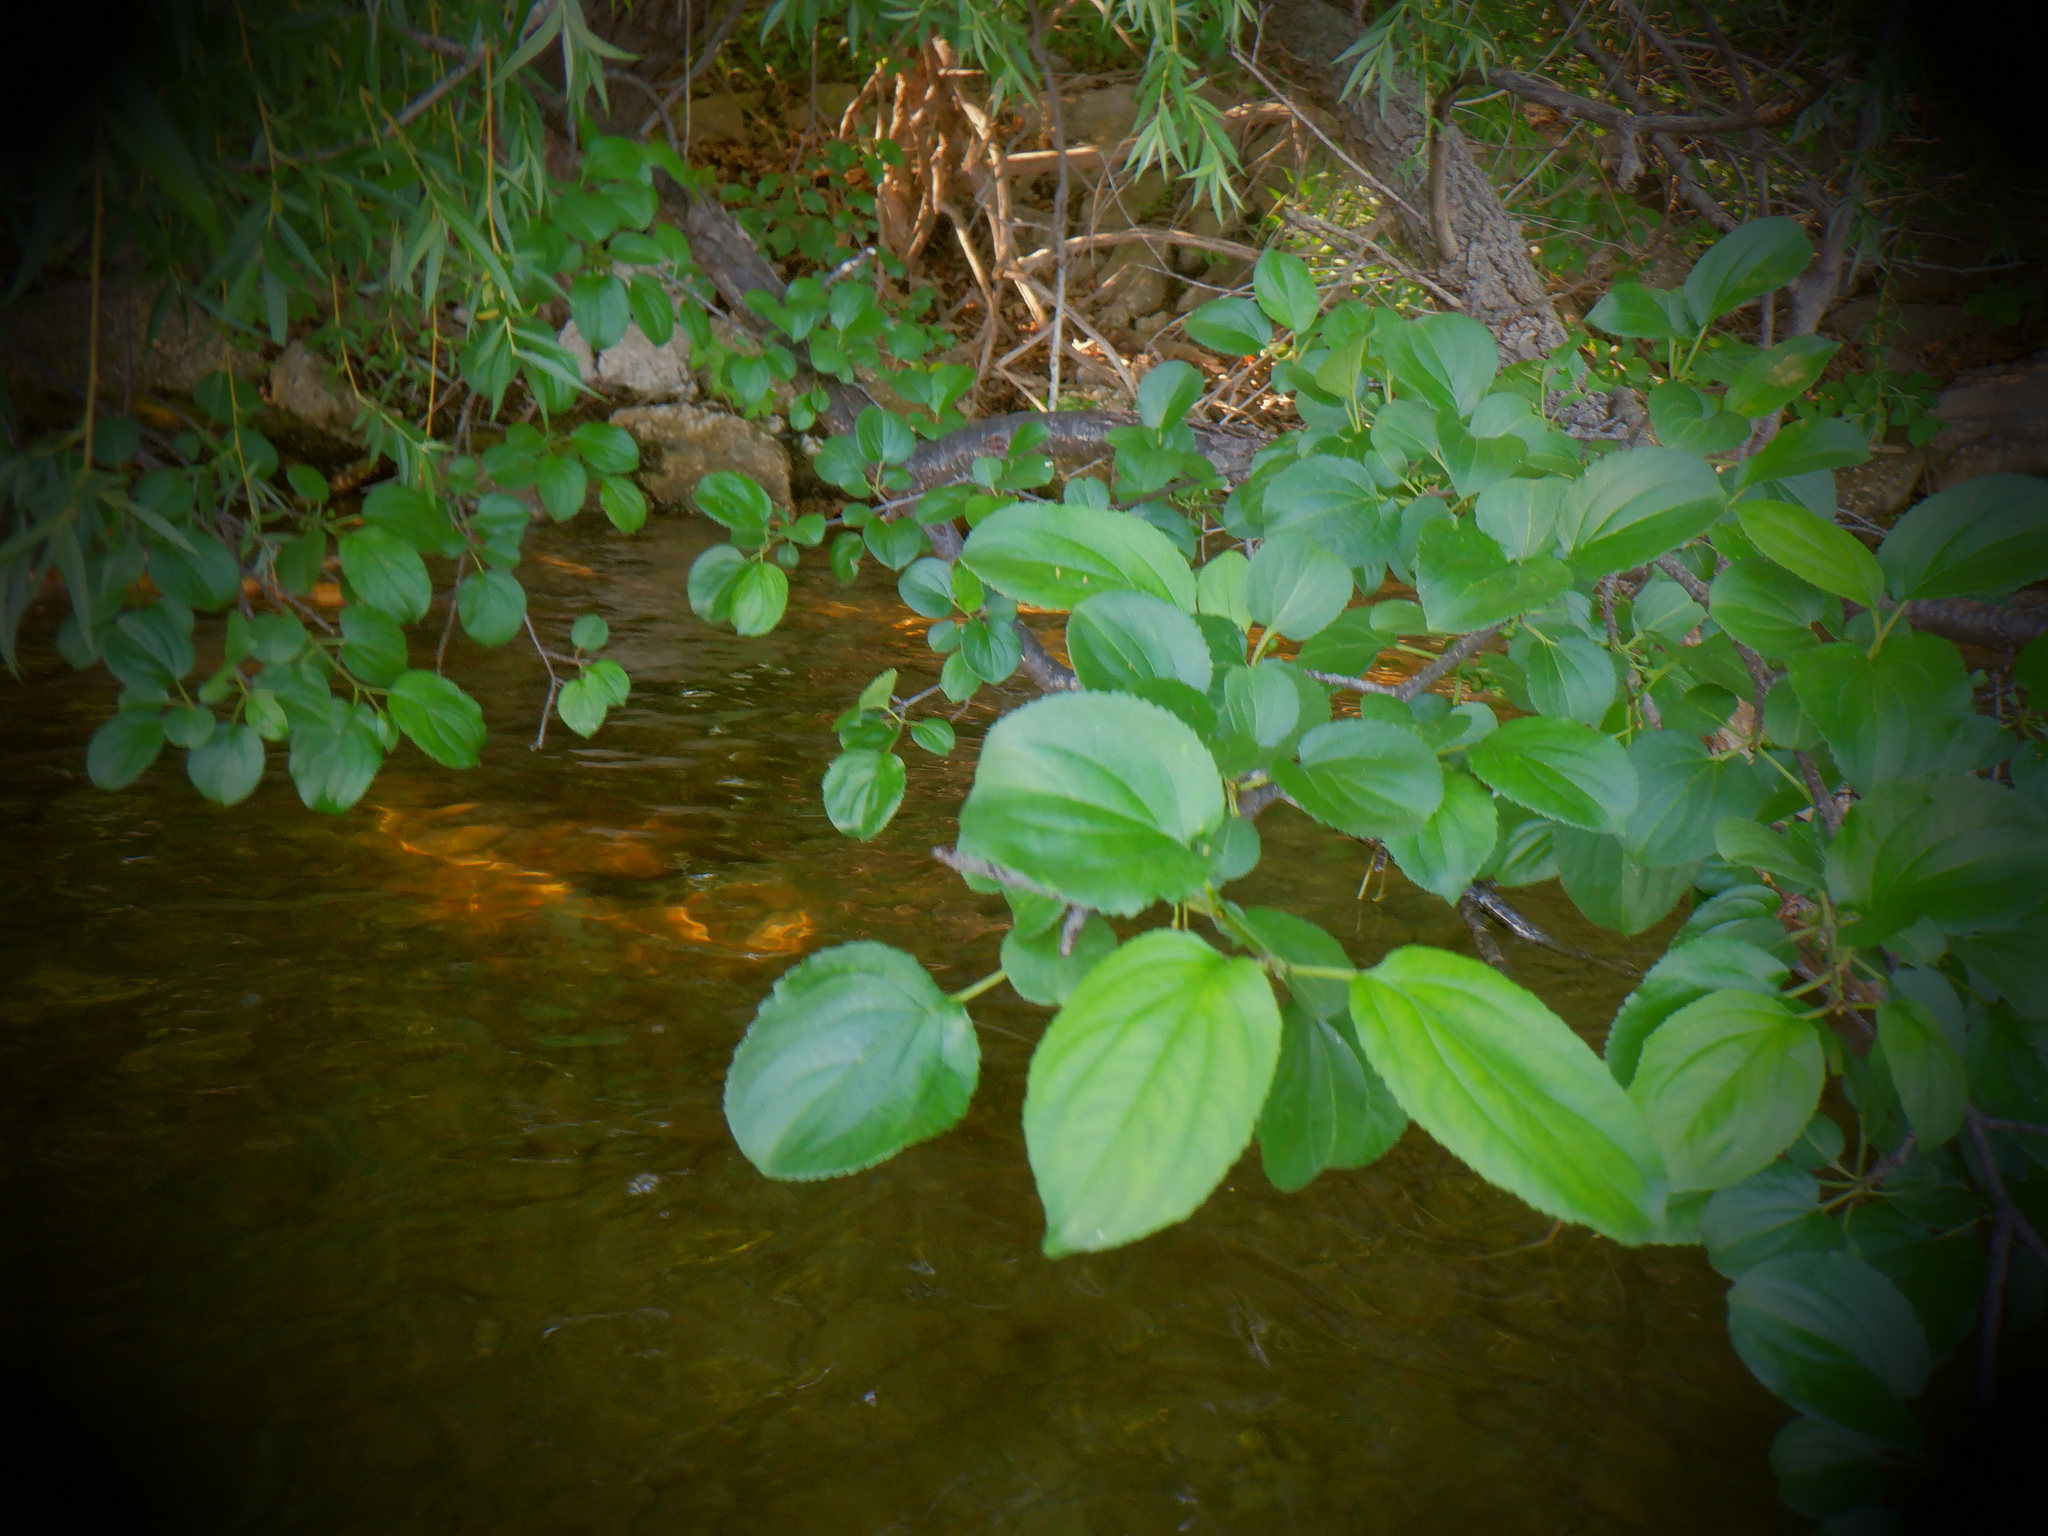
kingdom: Plantae
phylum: Tracheophyta
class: Magnoliopsida
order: Rosales
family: Rhamnaceae
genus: Rhamnus
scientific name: Rhamnus cathartica
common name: Common buckthorn
